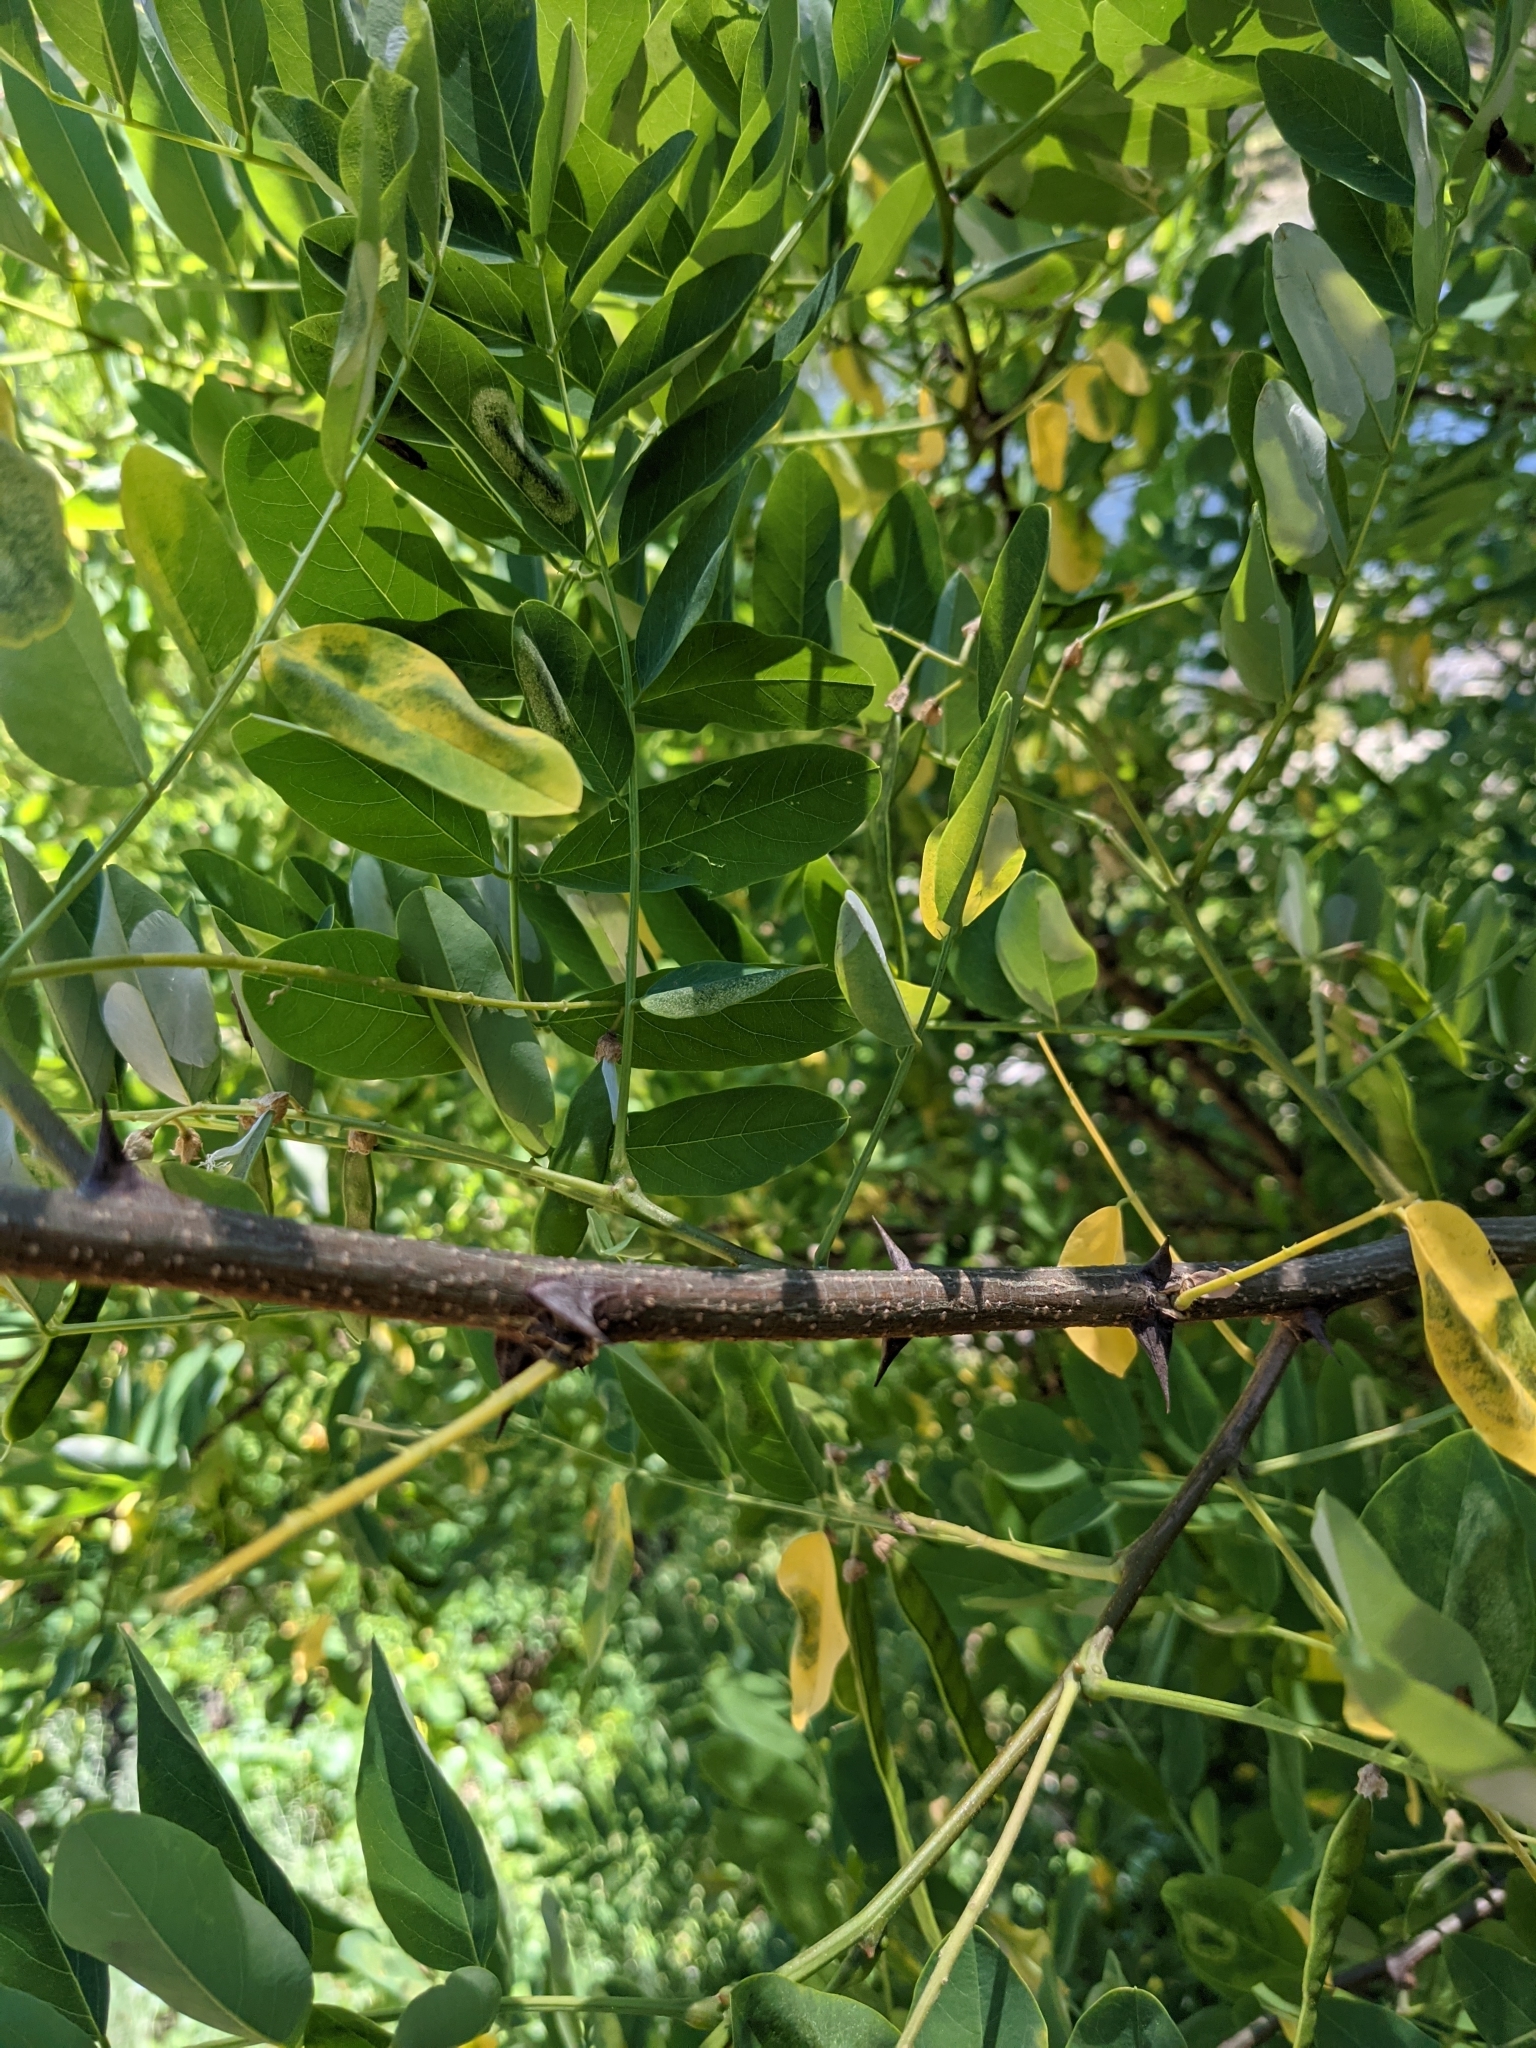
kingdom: Plantae
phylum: Tracheophyta
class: Magnoliopsida
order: Fabales
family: Fabaceae
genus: Robinia
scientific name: Robinia pseudoacacia
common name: Black locust
